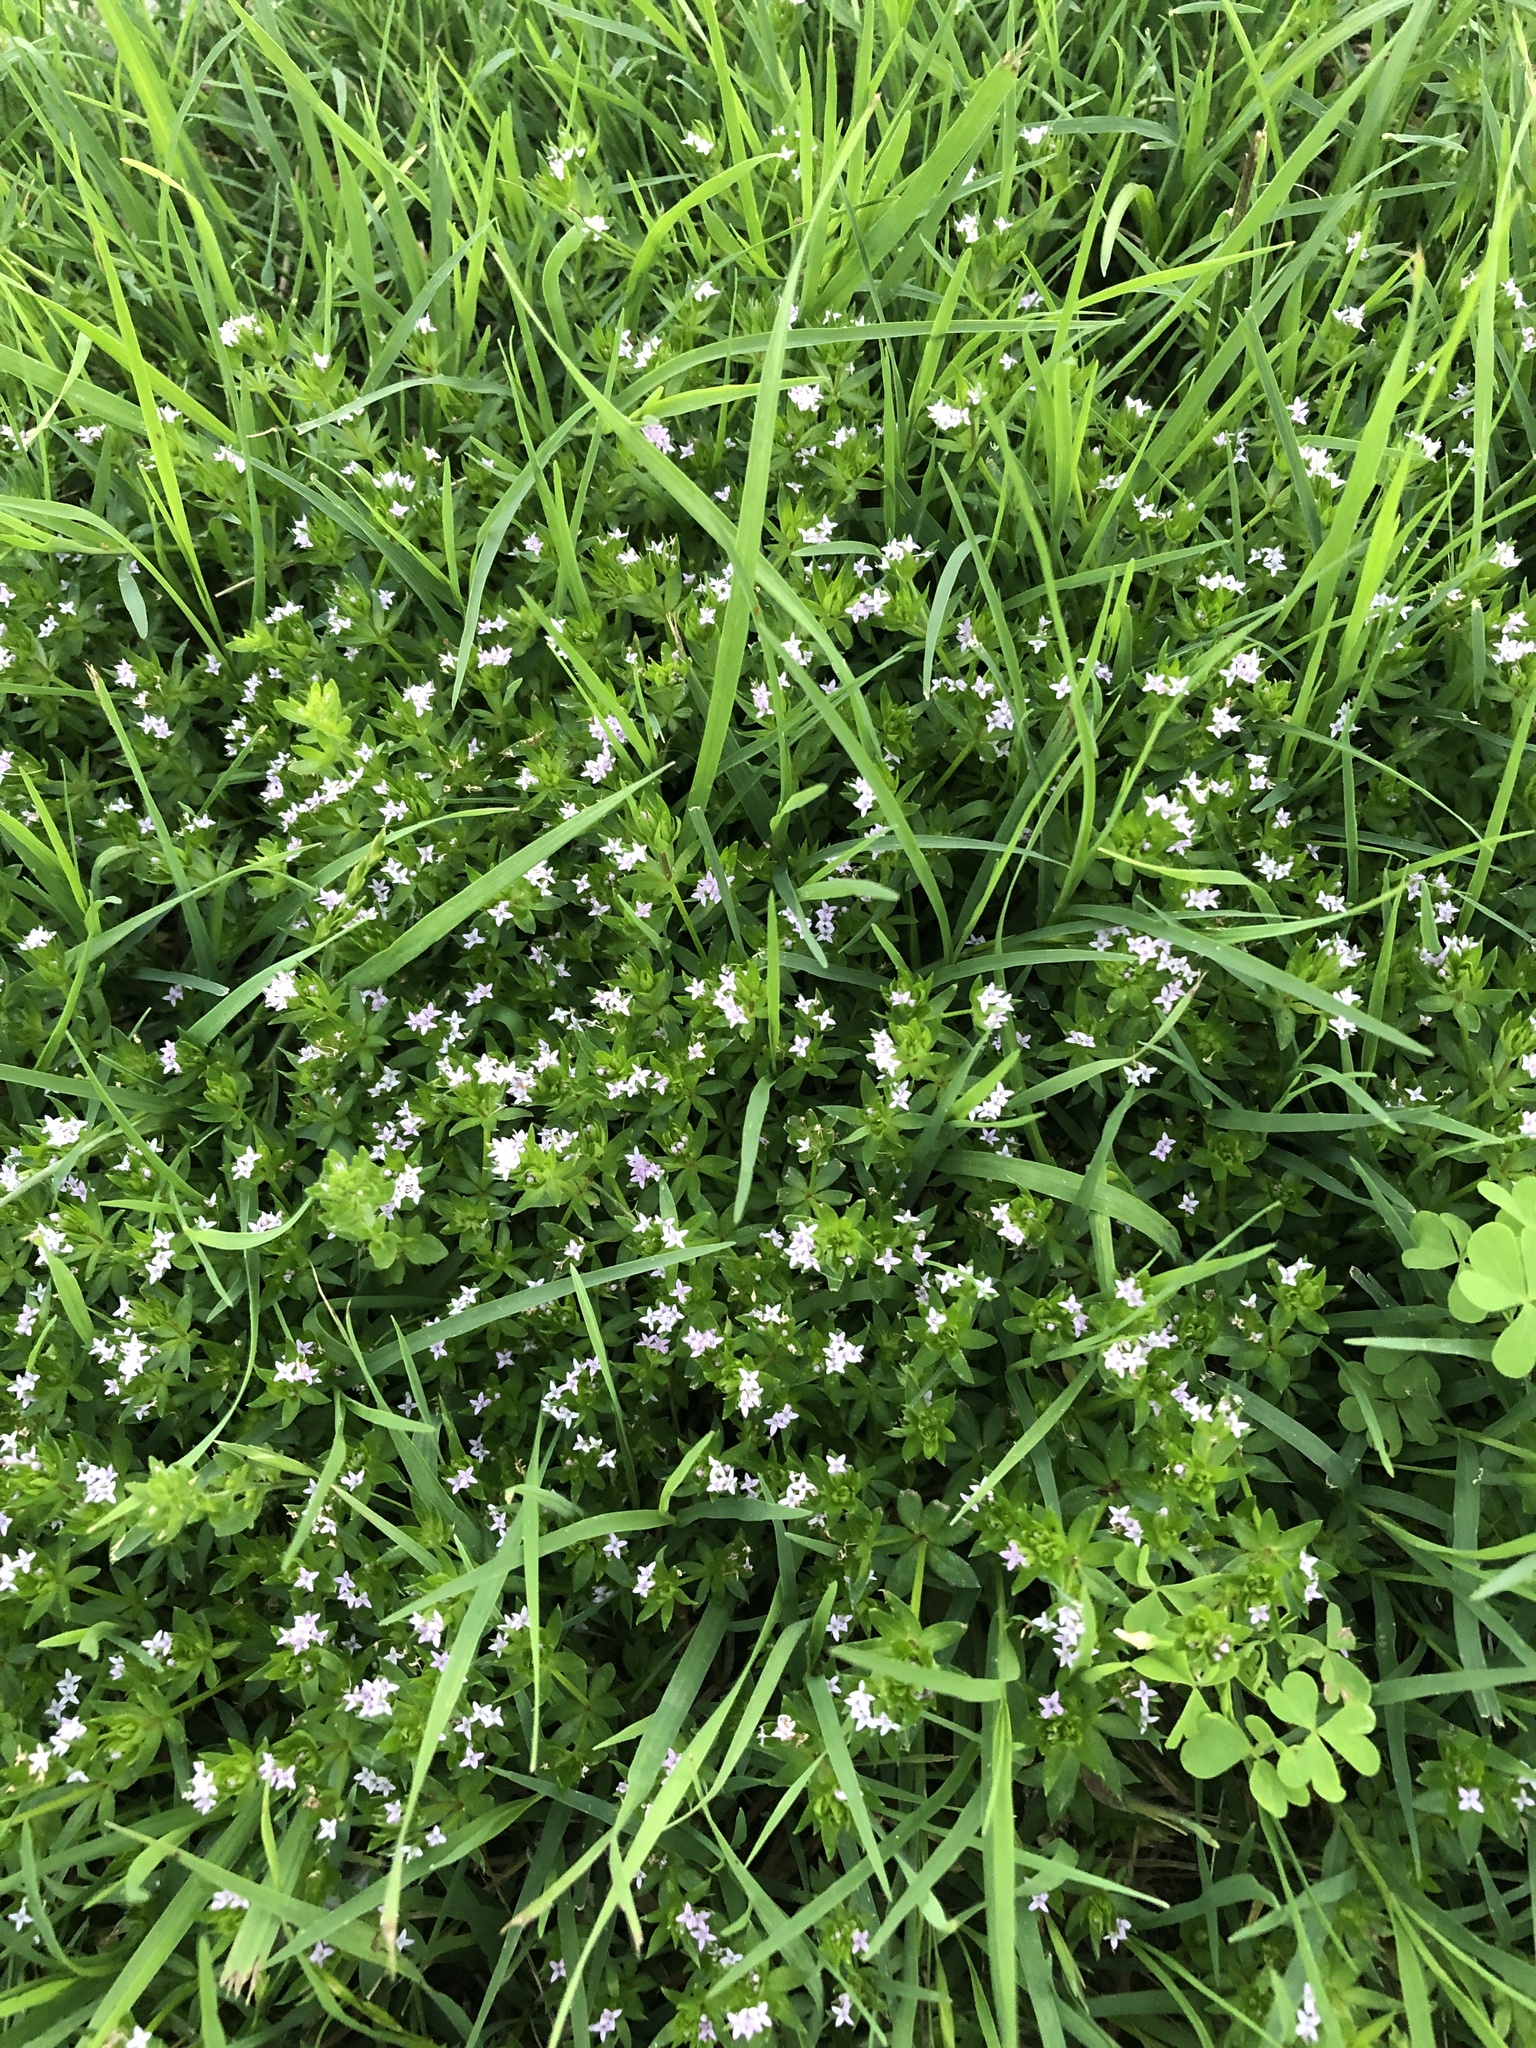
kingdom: Plantae
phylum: Tracheophyta
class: Magnoliopsida
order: Gentianales
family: Rubiaceae
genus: Sherardia
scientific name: Sherardia arvensis
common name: Field madder
